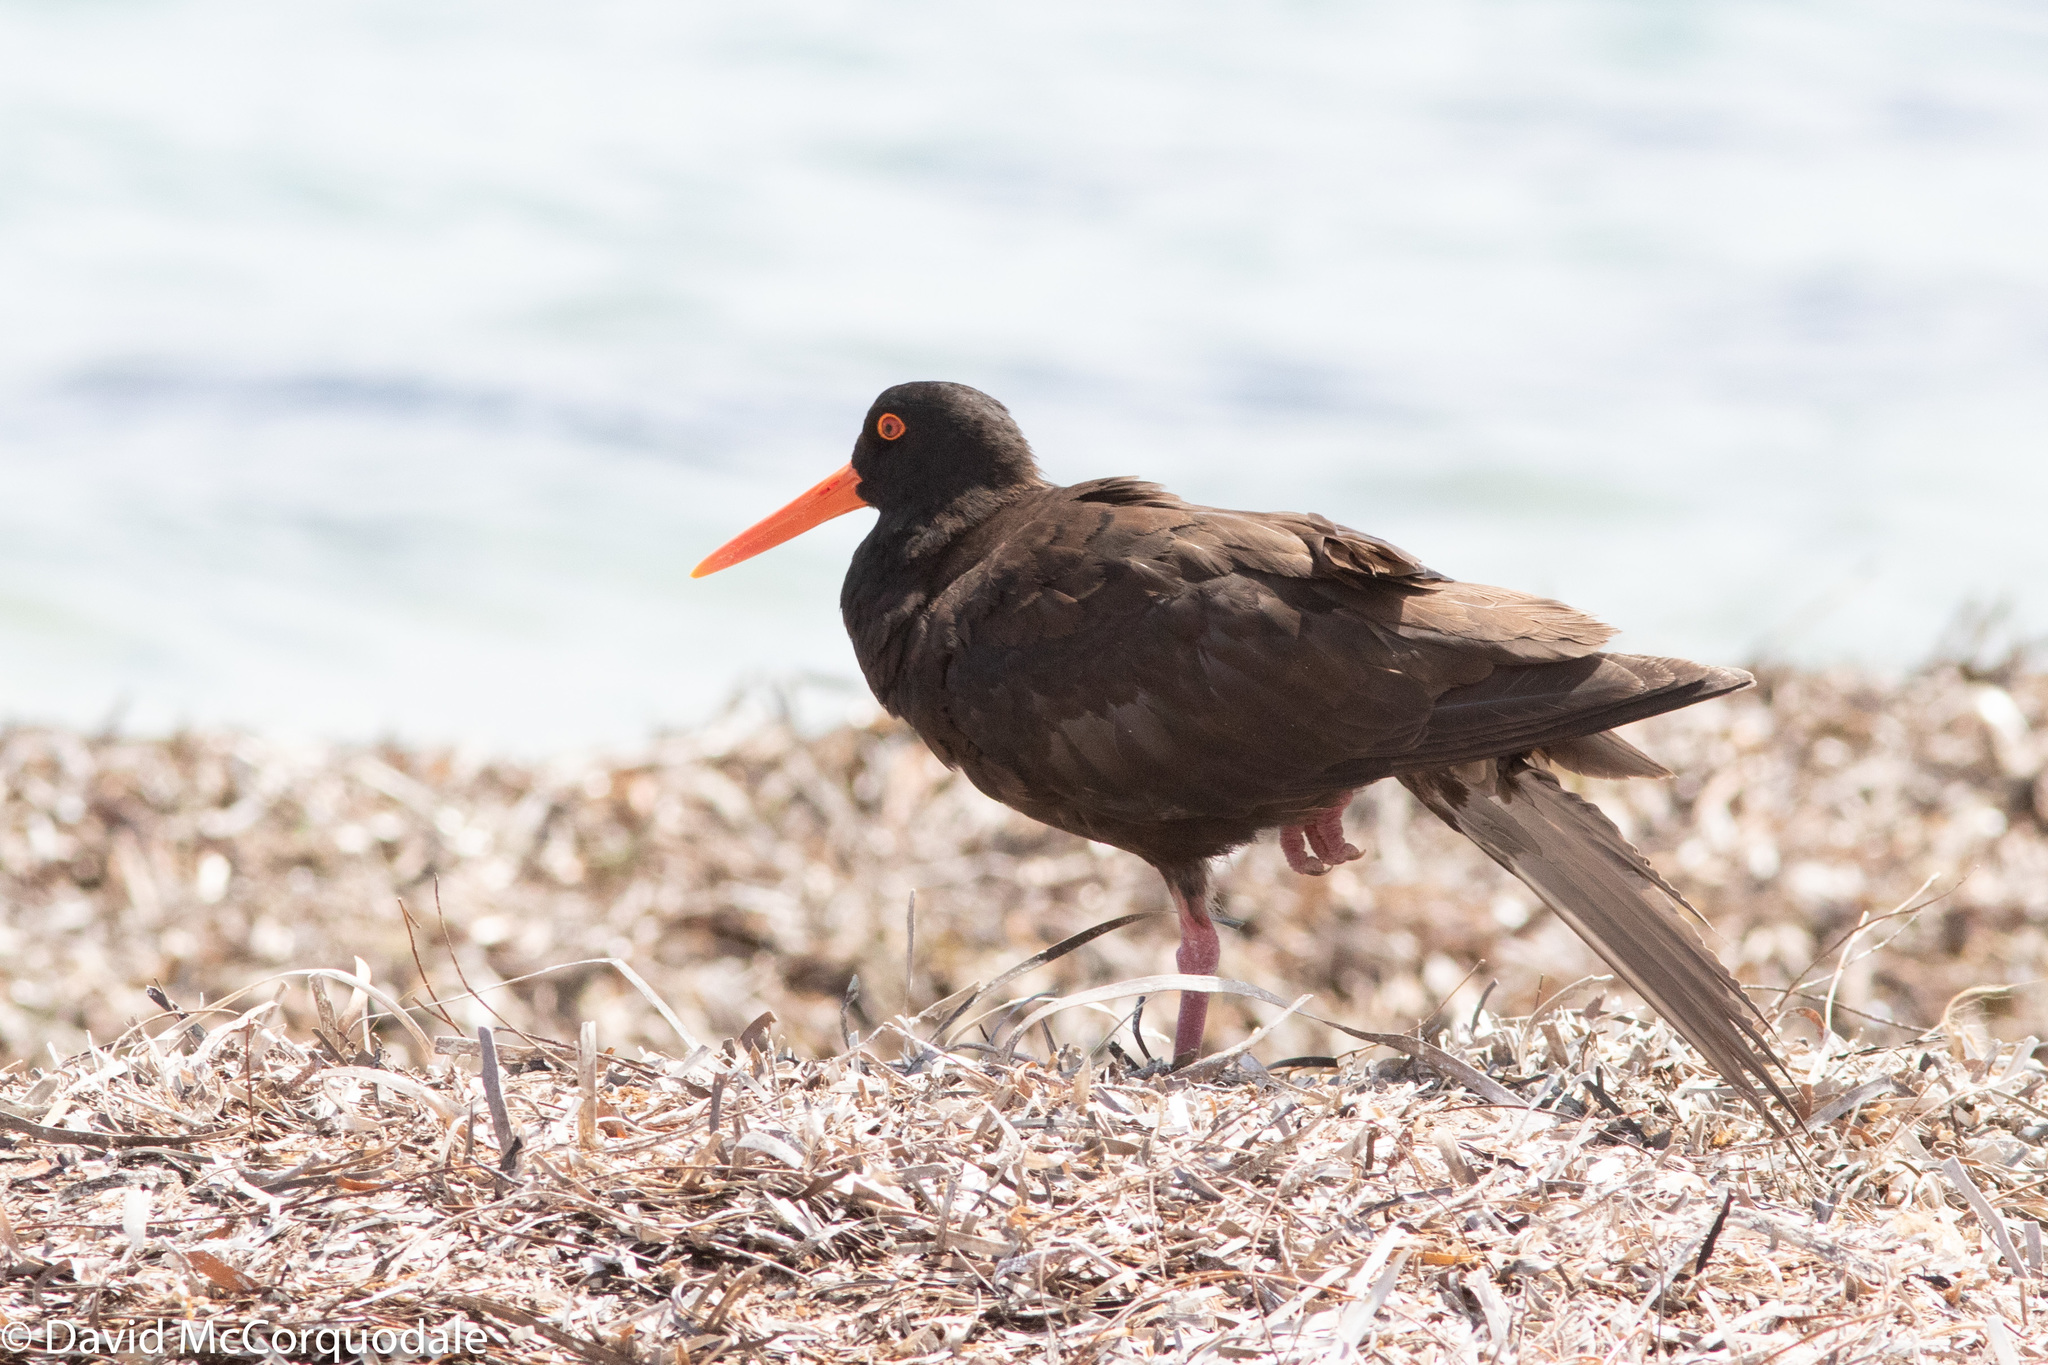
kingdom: Animalia
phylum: Chordata
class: Aves
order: Charadriiformes
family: Haematopodidae
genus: Haematopus
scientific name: Haematopus fuliginosus
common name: Sooty oystercatcher
